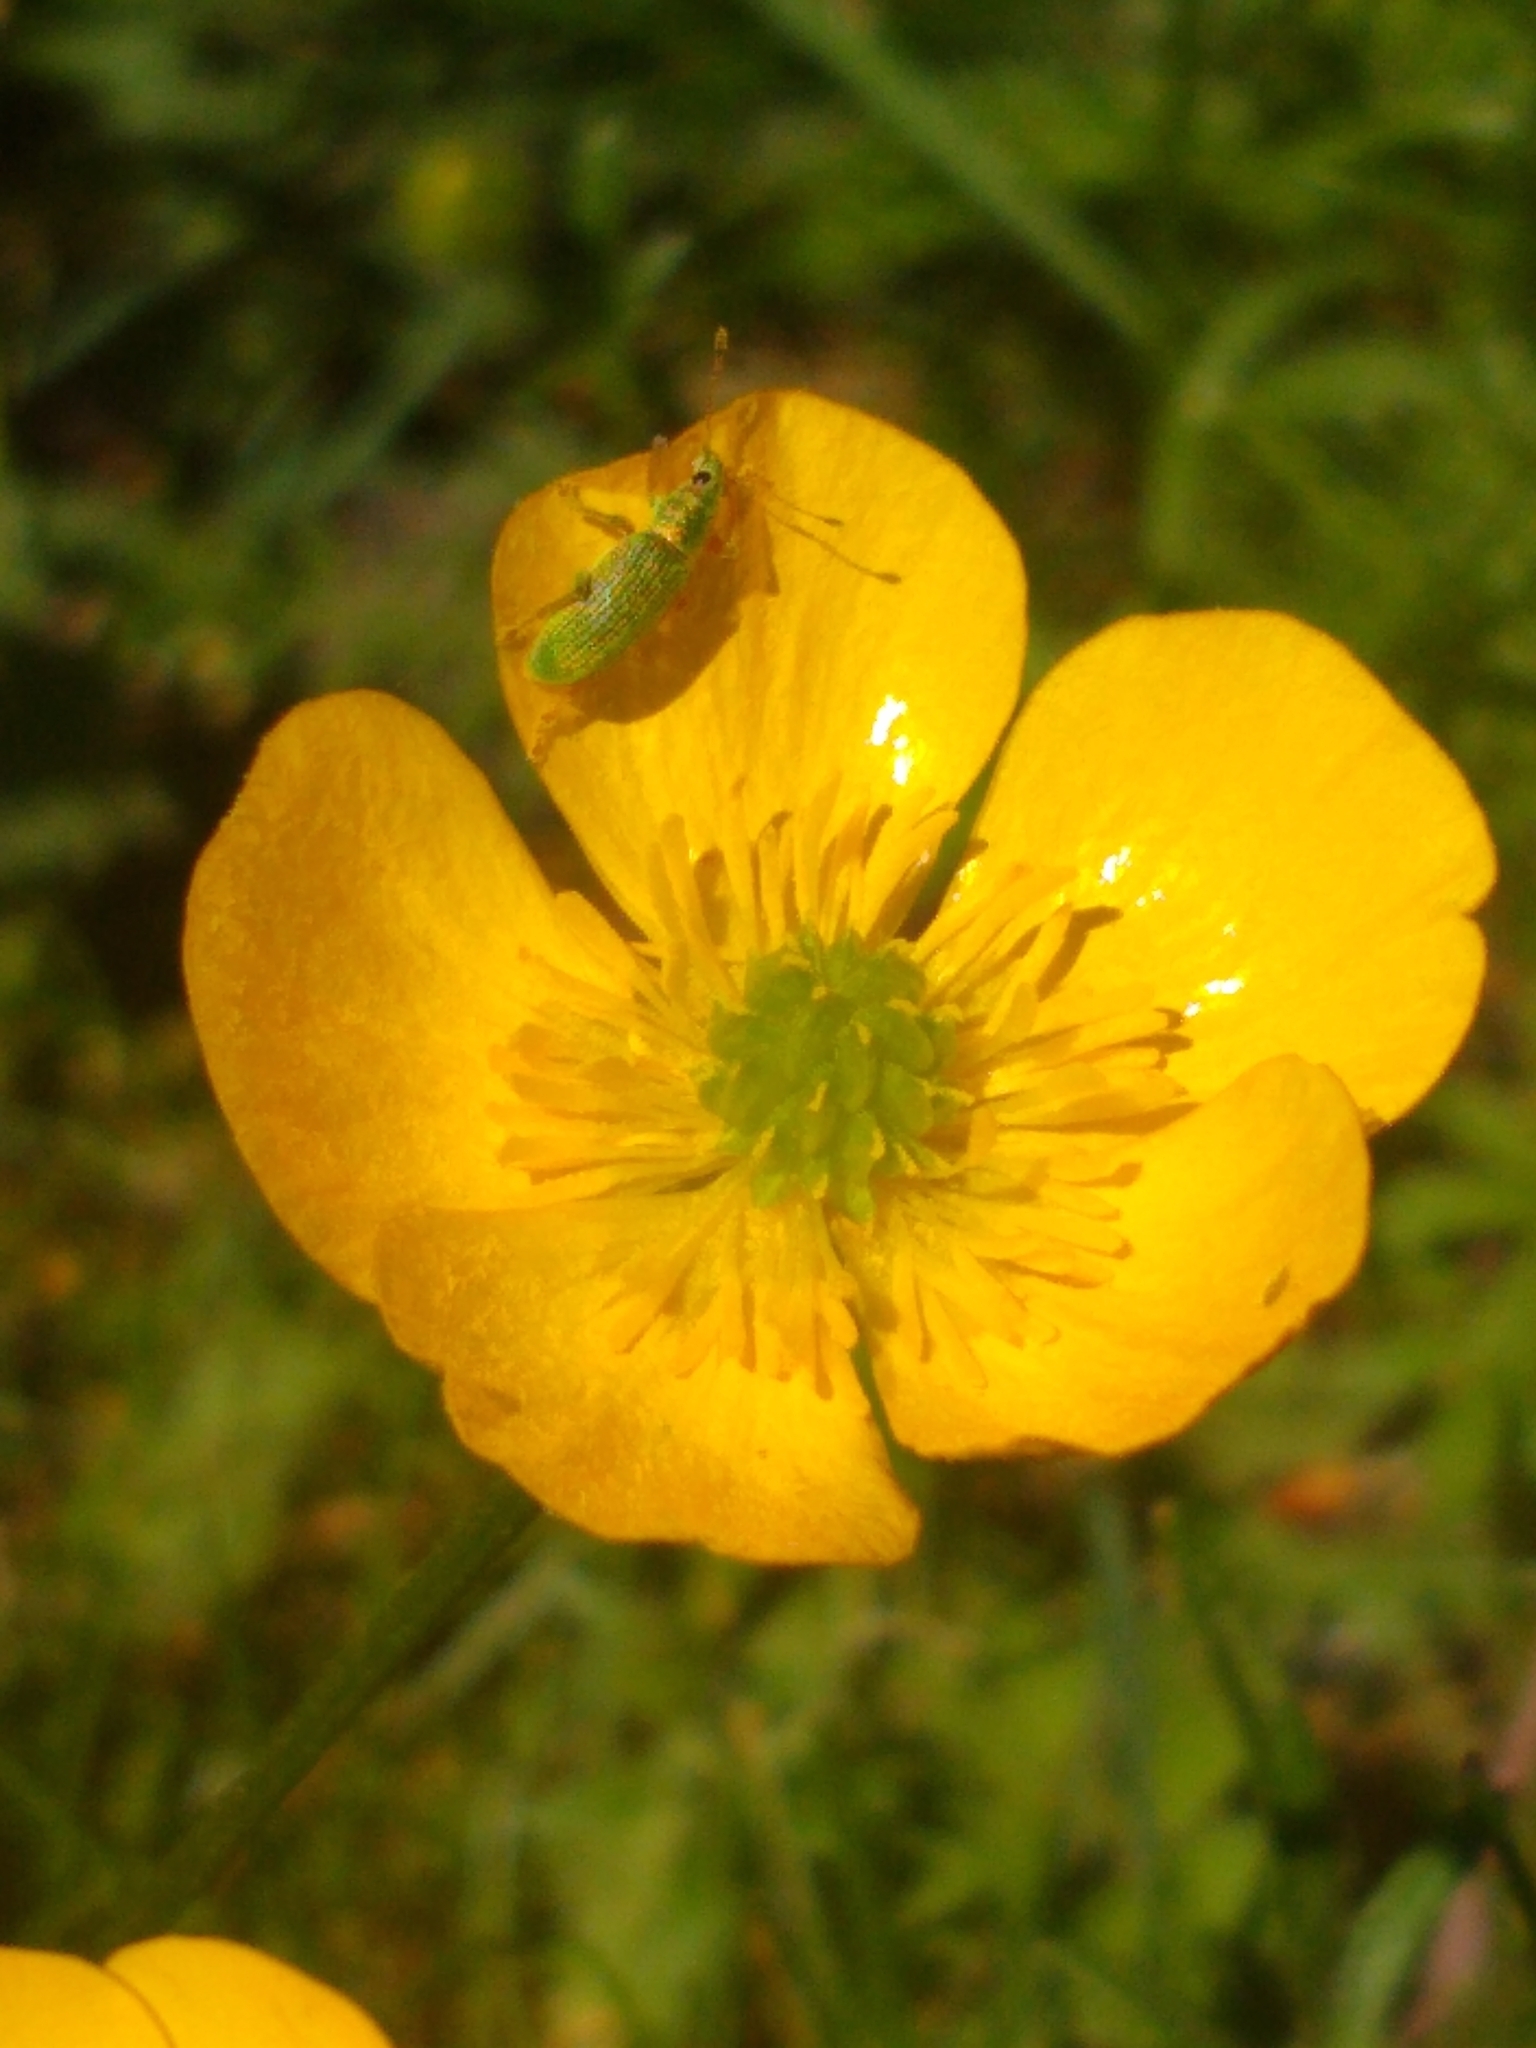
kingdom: Animalia
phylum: Arthropoda
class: Insecta
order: Coleoptera
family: Curculionidae
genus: Polydrusus
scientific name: Polydrusus formosus
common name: Weevil
